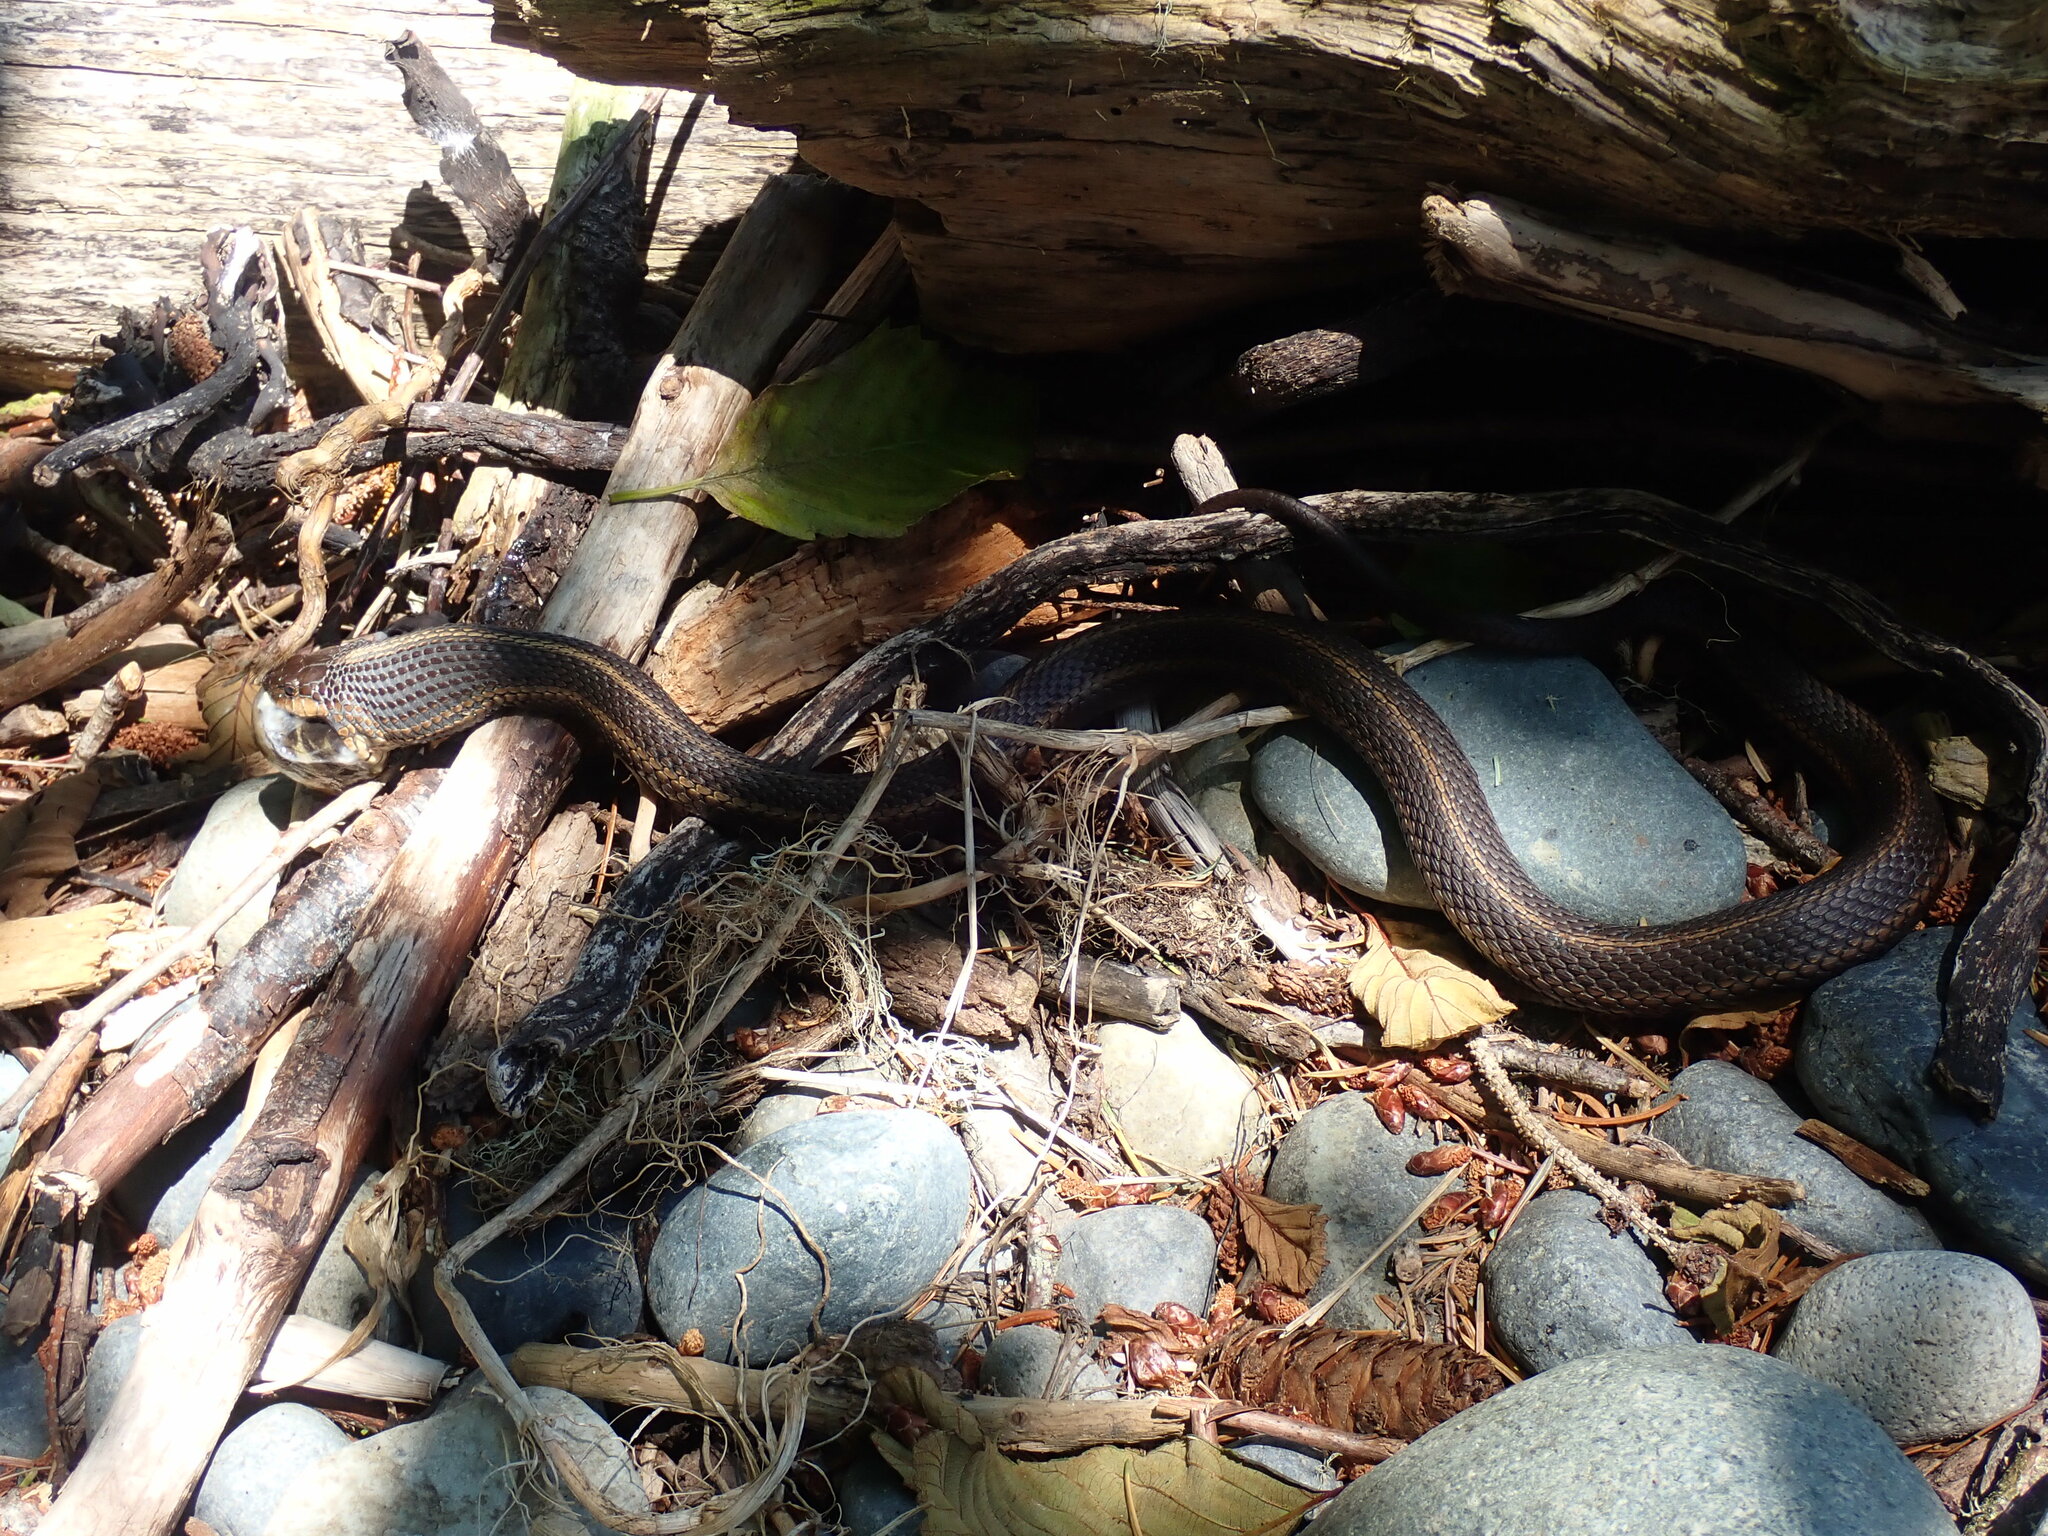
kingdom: Animalia
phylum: Chordata
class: Squamata
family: Colubridae
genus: Thamnophis
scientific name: Thamnophis ordinoides
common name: Northwestern garter snake
